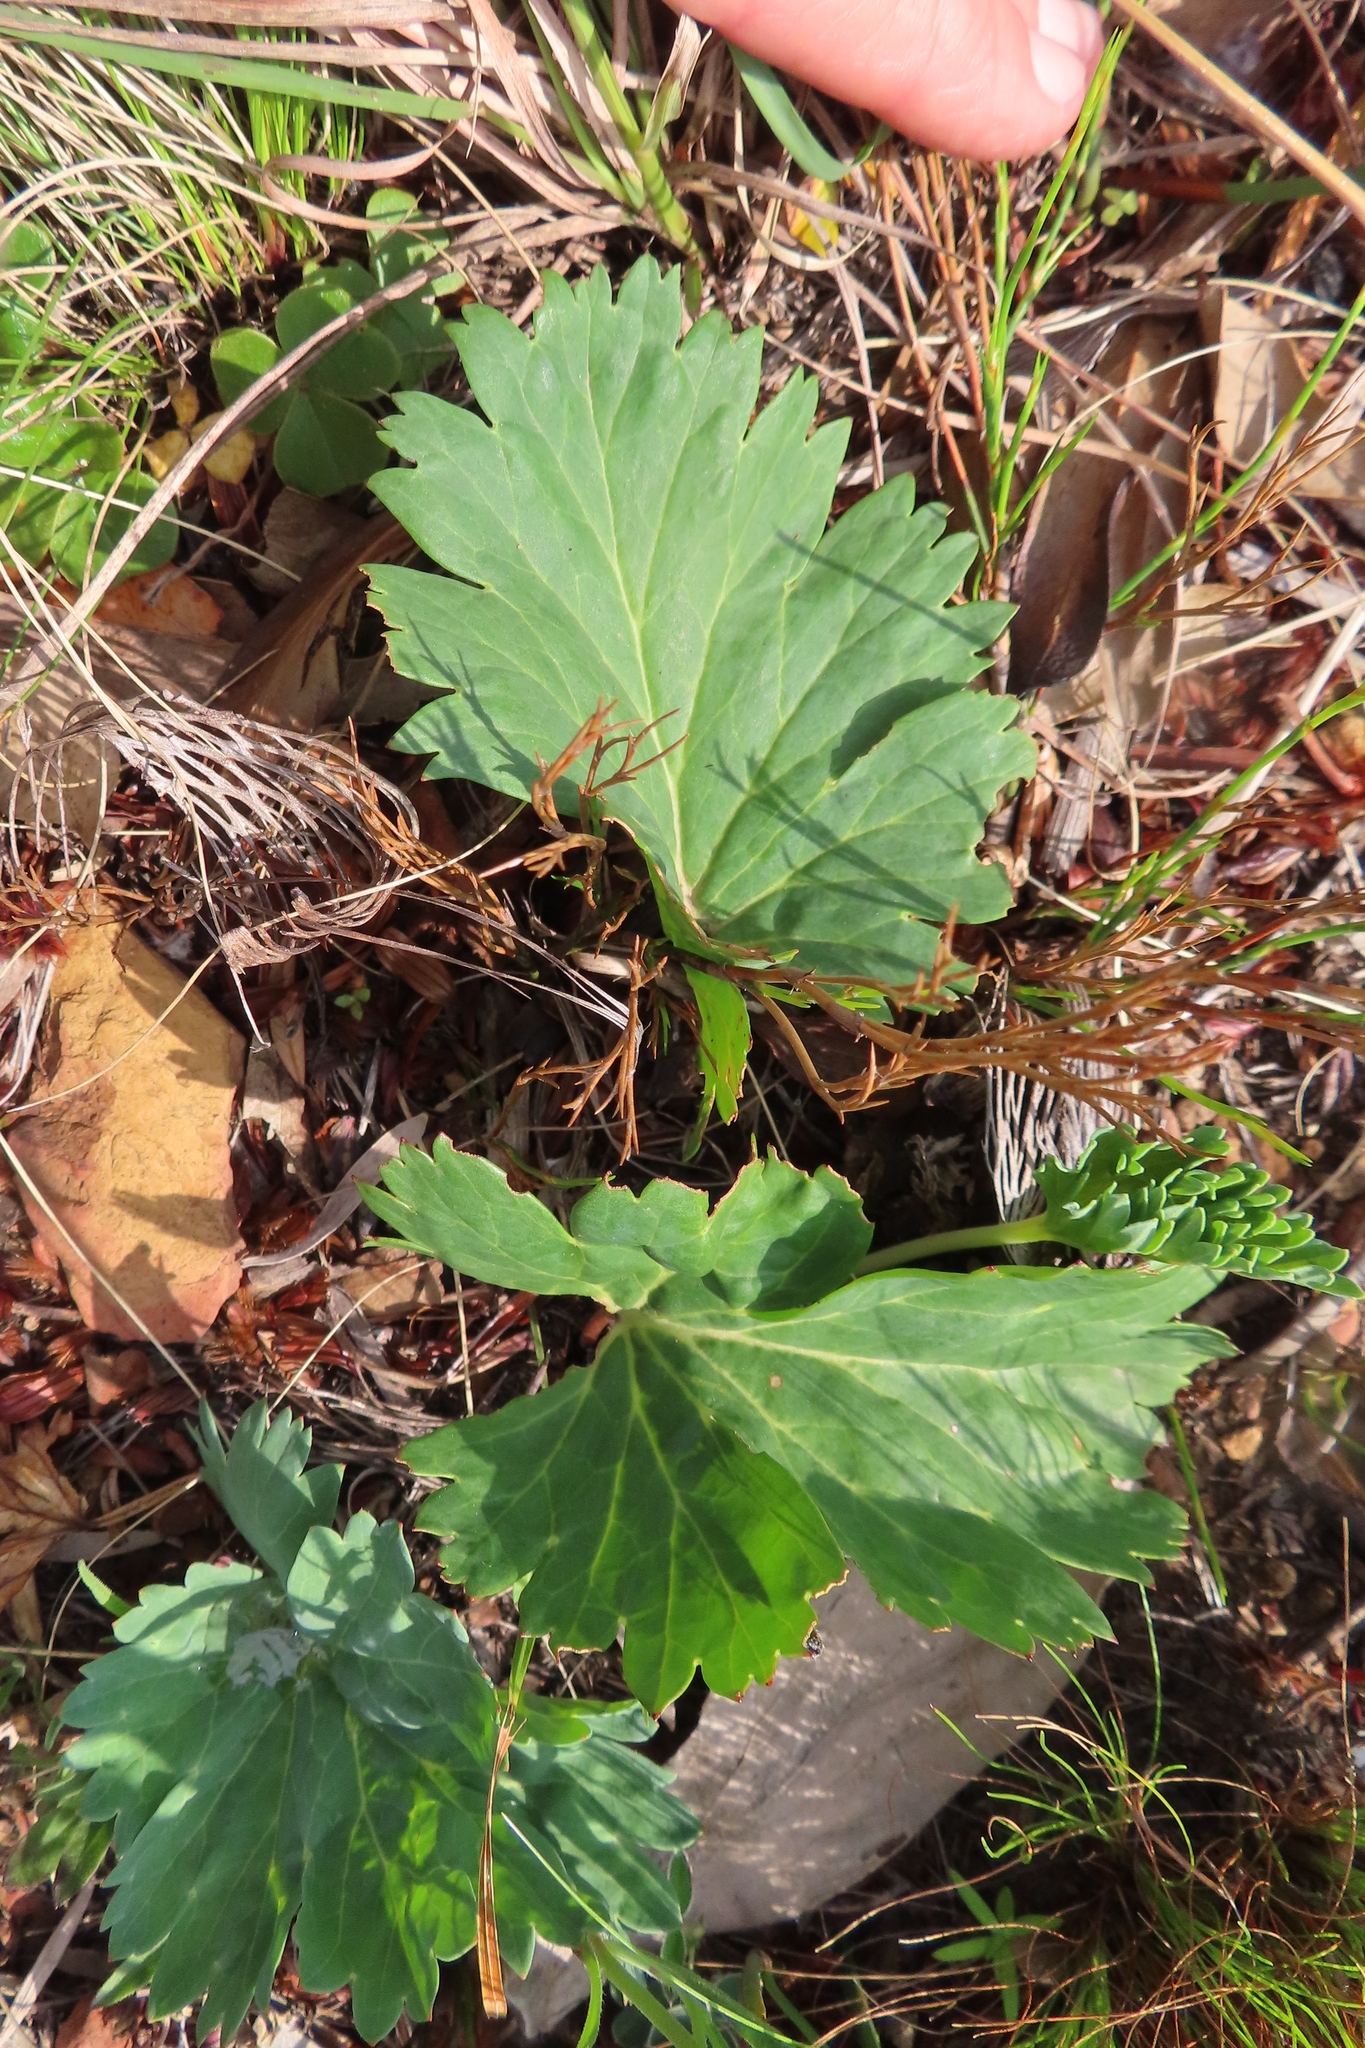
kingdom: Plantae
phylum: Tracheophyta
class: Magnoliopsida
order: Geraniales
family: Geraniaceae
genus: Pelargonium
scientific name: Pelargonium pillansii
